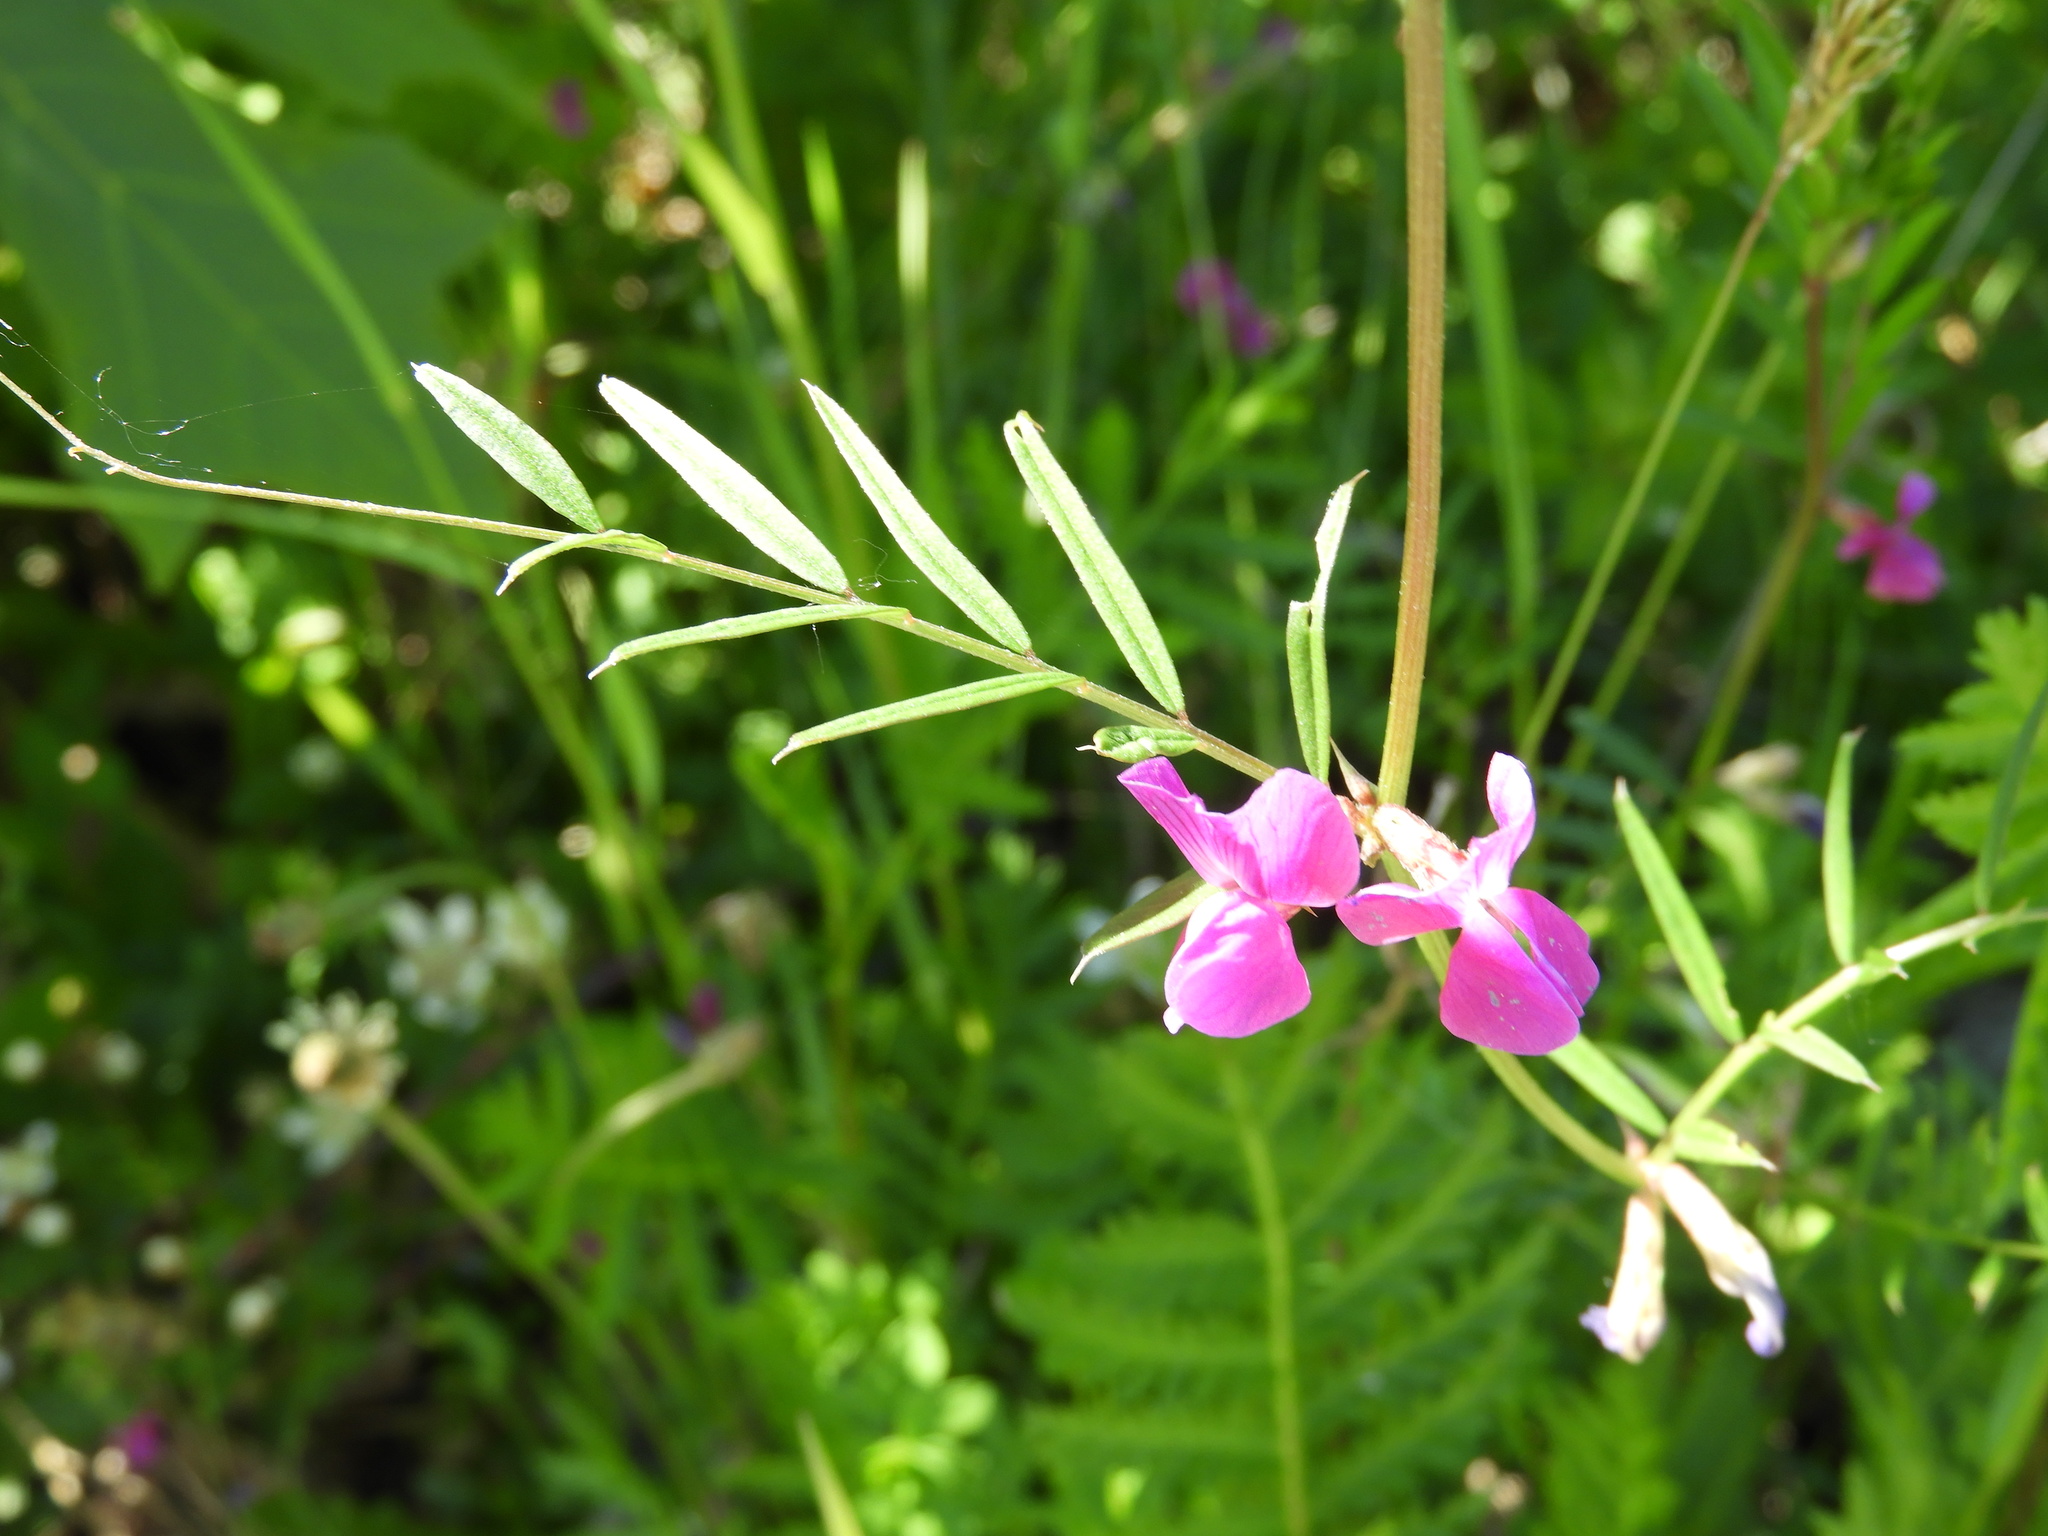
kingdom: Plantae
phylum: Tracheophyta
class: Magnoliopsida
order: Fabales
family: Fabaceae
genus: Vicia
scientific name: Vicia sativa
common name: Garden vetch
